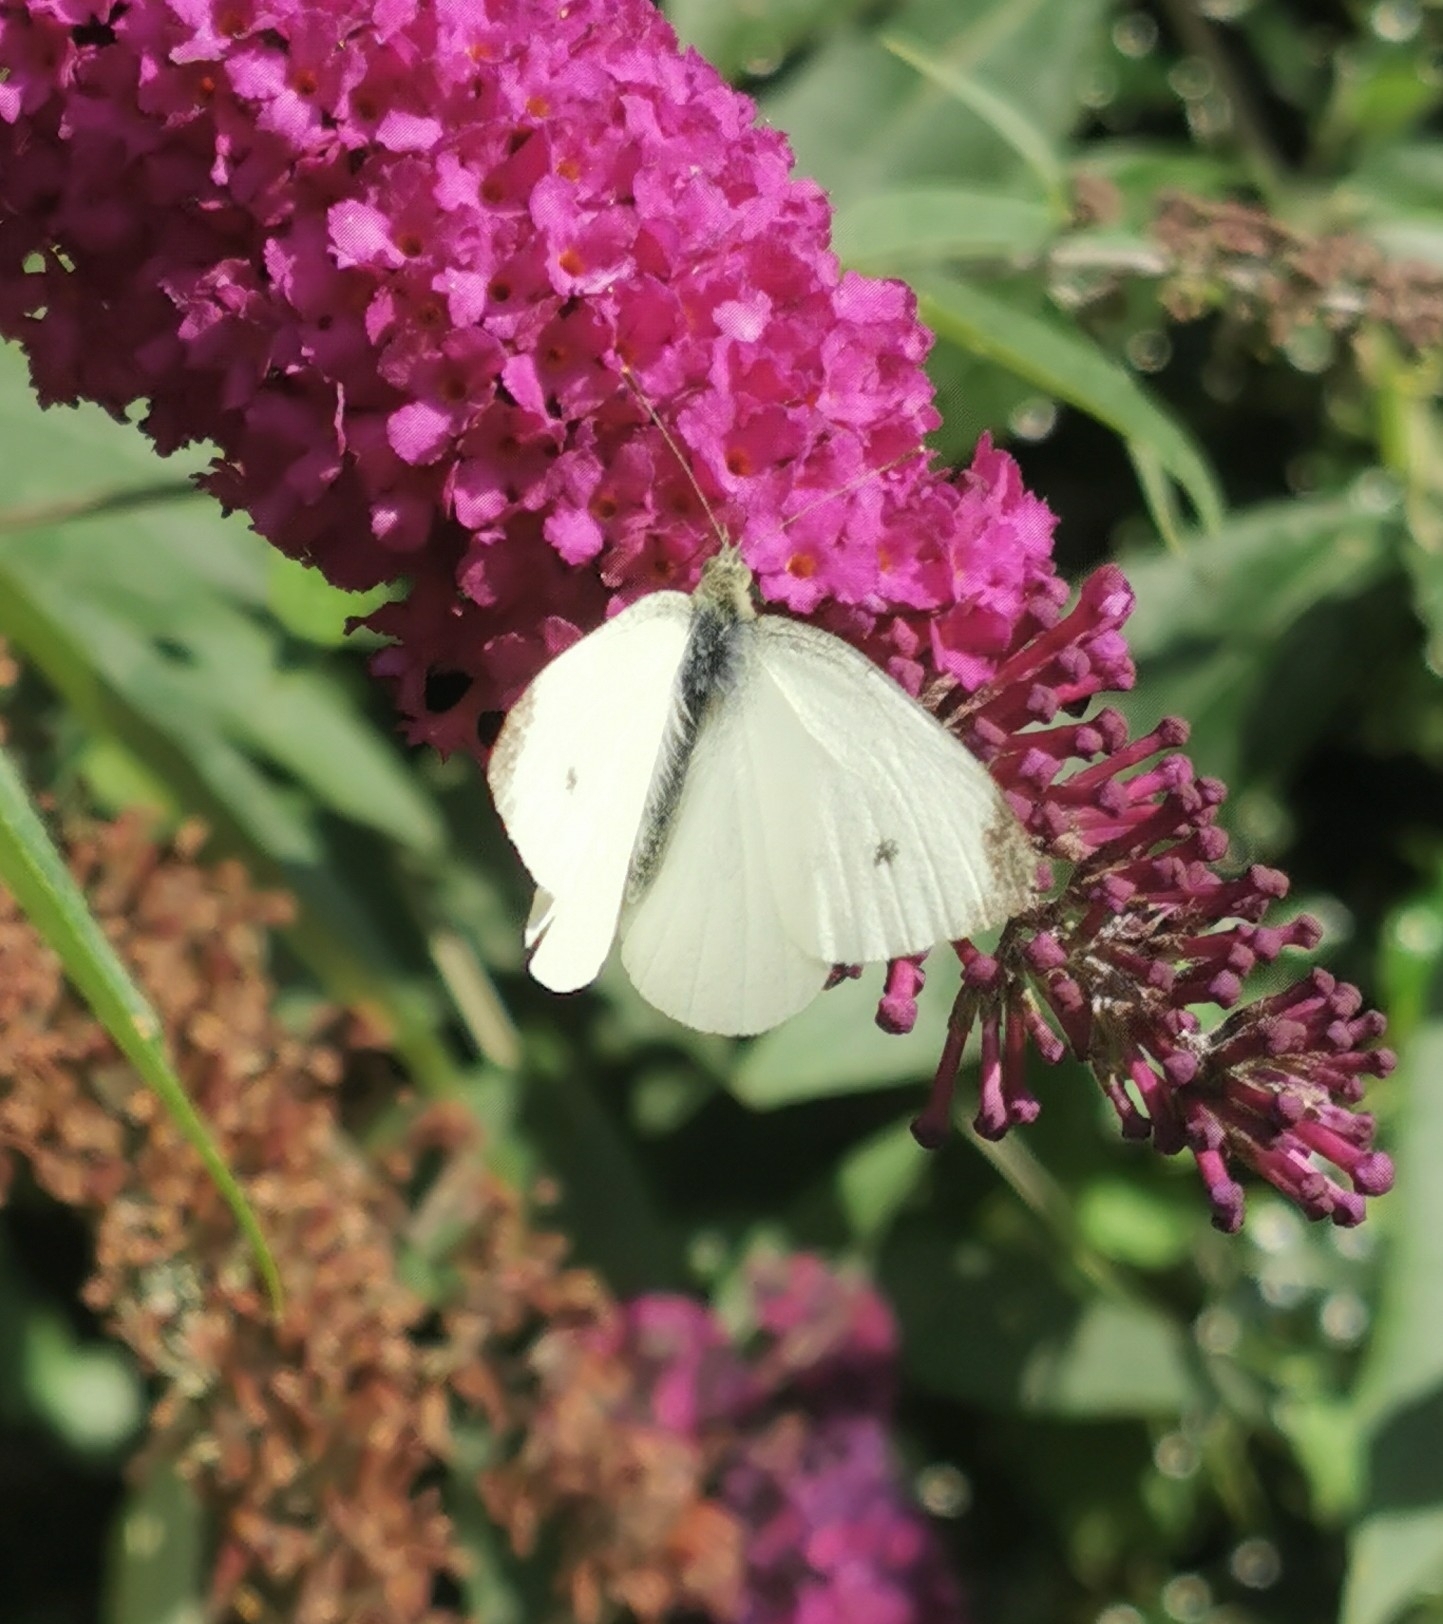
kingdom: Animalia
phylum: Arthropoda
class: Insecta
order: Lepidoptera
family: Pieridae
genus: Pieris
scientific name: Pieris rapae
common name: Small white
